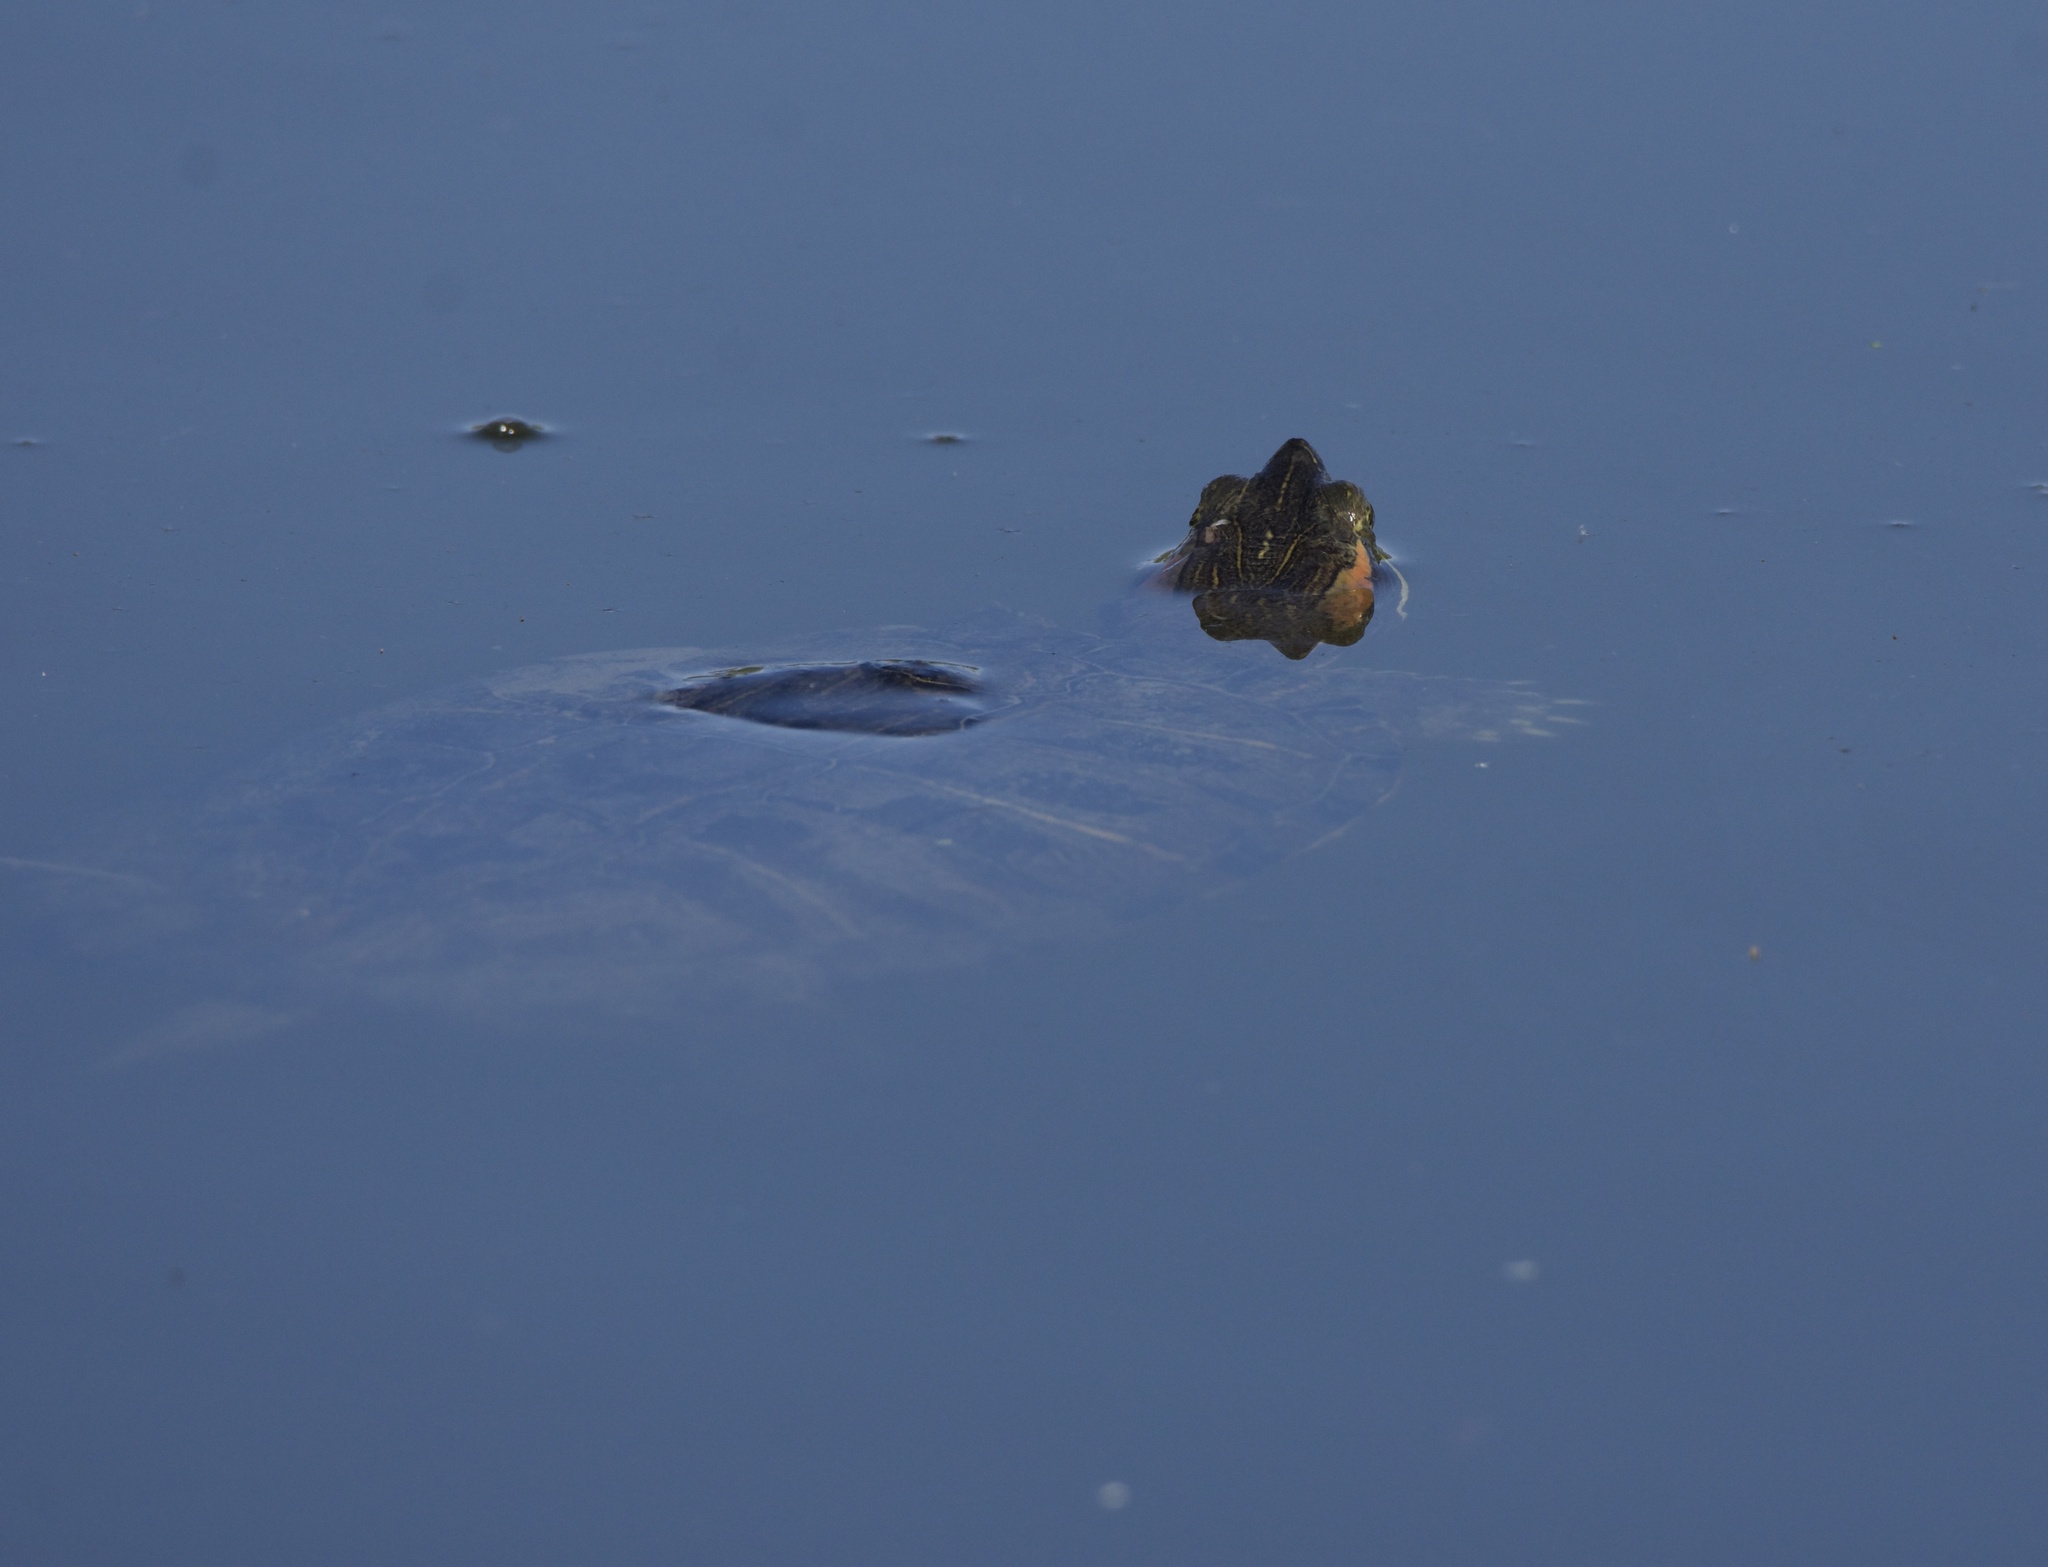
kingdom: Animalia
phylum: Chordata
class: Testudines
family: Emydidae
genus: Trachemys
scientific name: Trachemys scripta
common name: Slider
